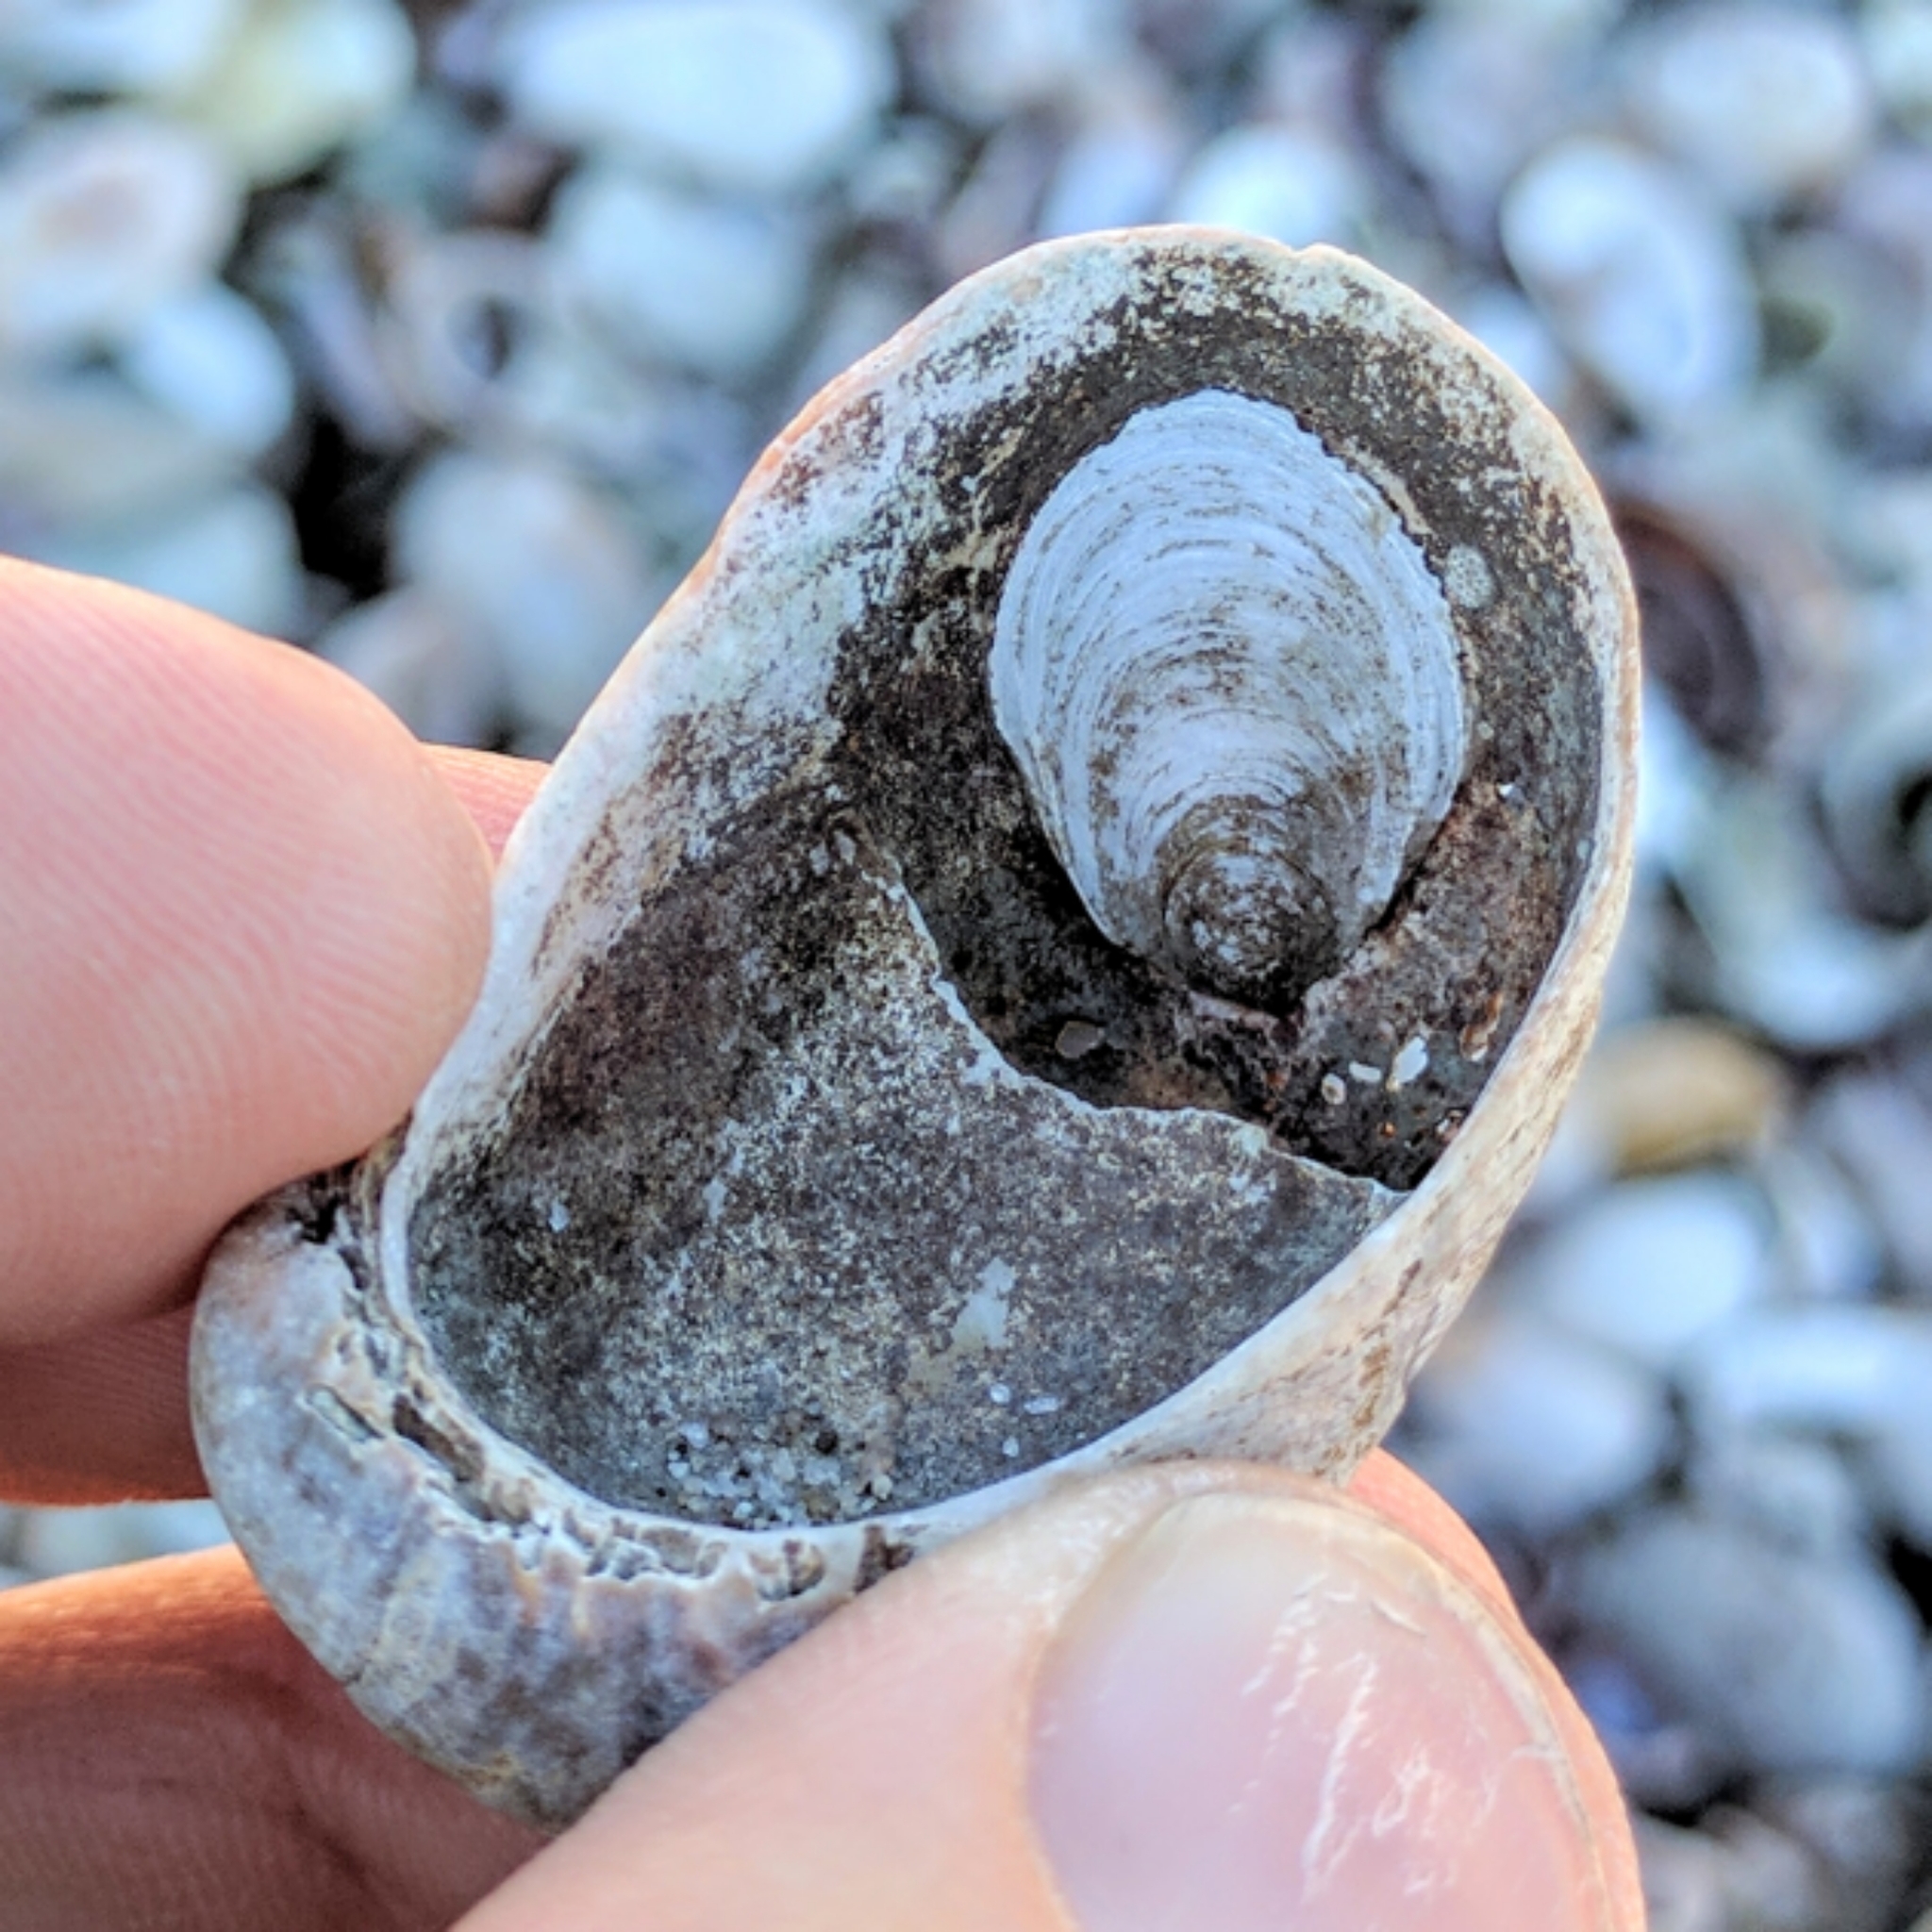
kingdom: Animalia
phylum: Mollusca
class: Gastropoda
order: Littorinimorpha
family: Calyptraeidae
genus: Crepidula
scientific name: Crepidula plana
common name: Eastern white slippersnail
